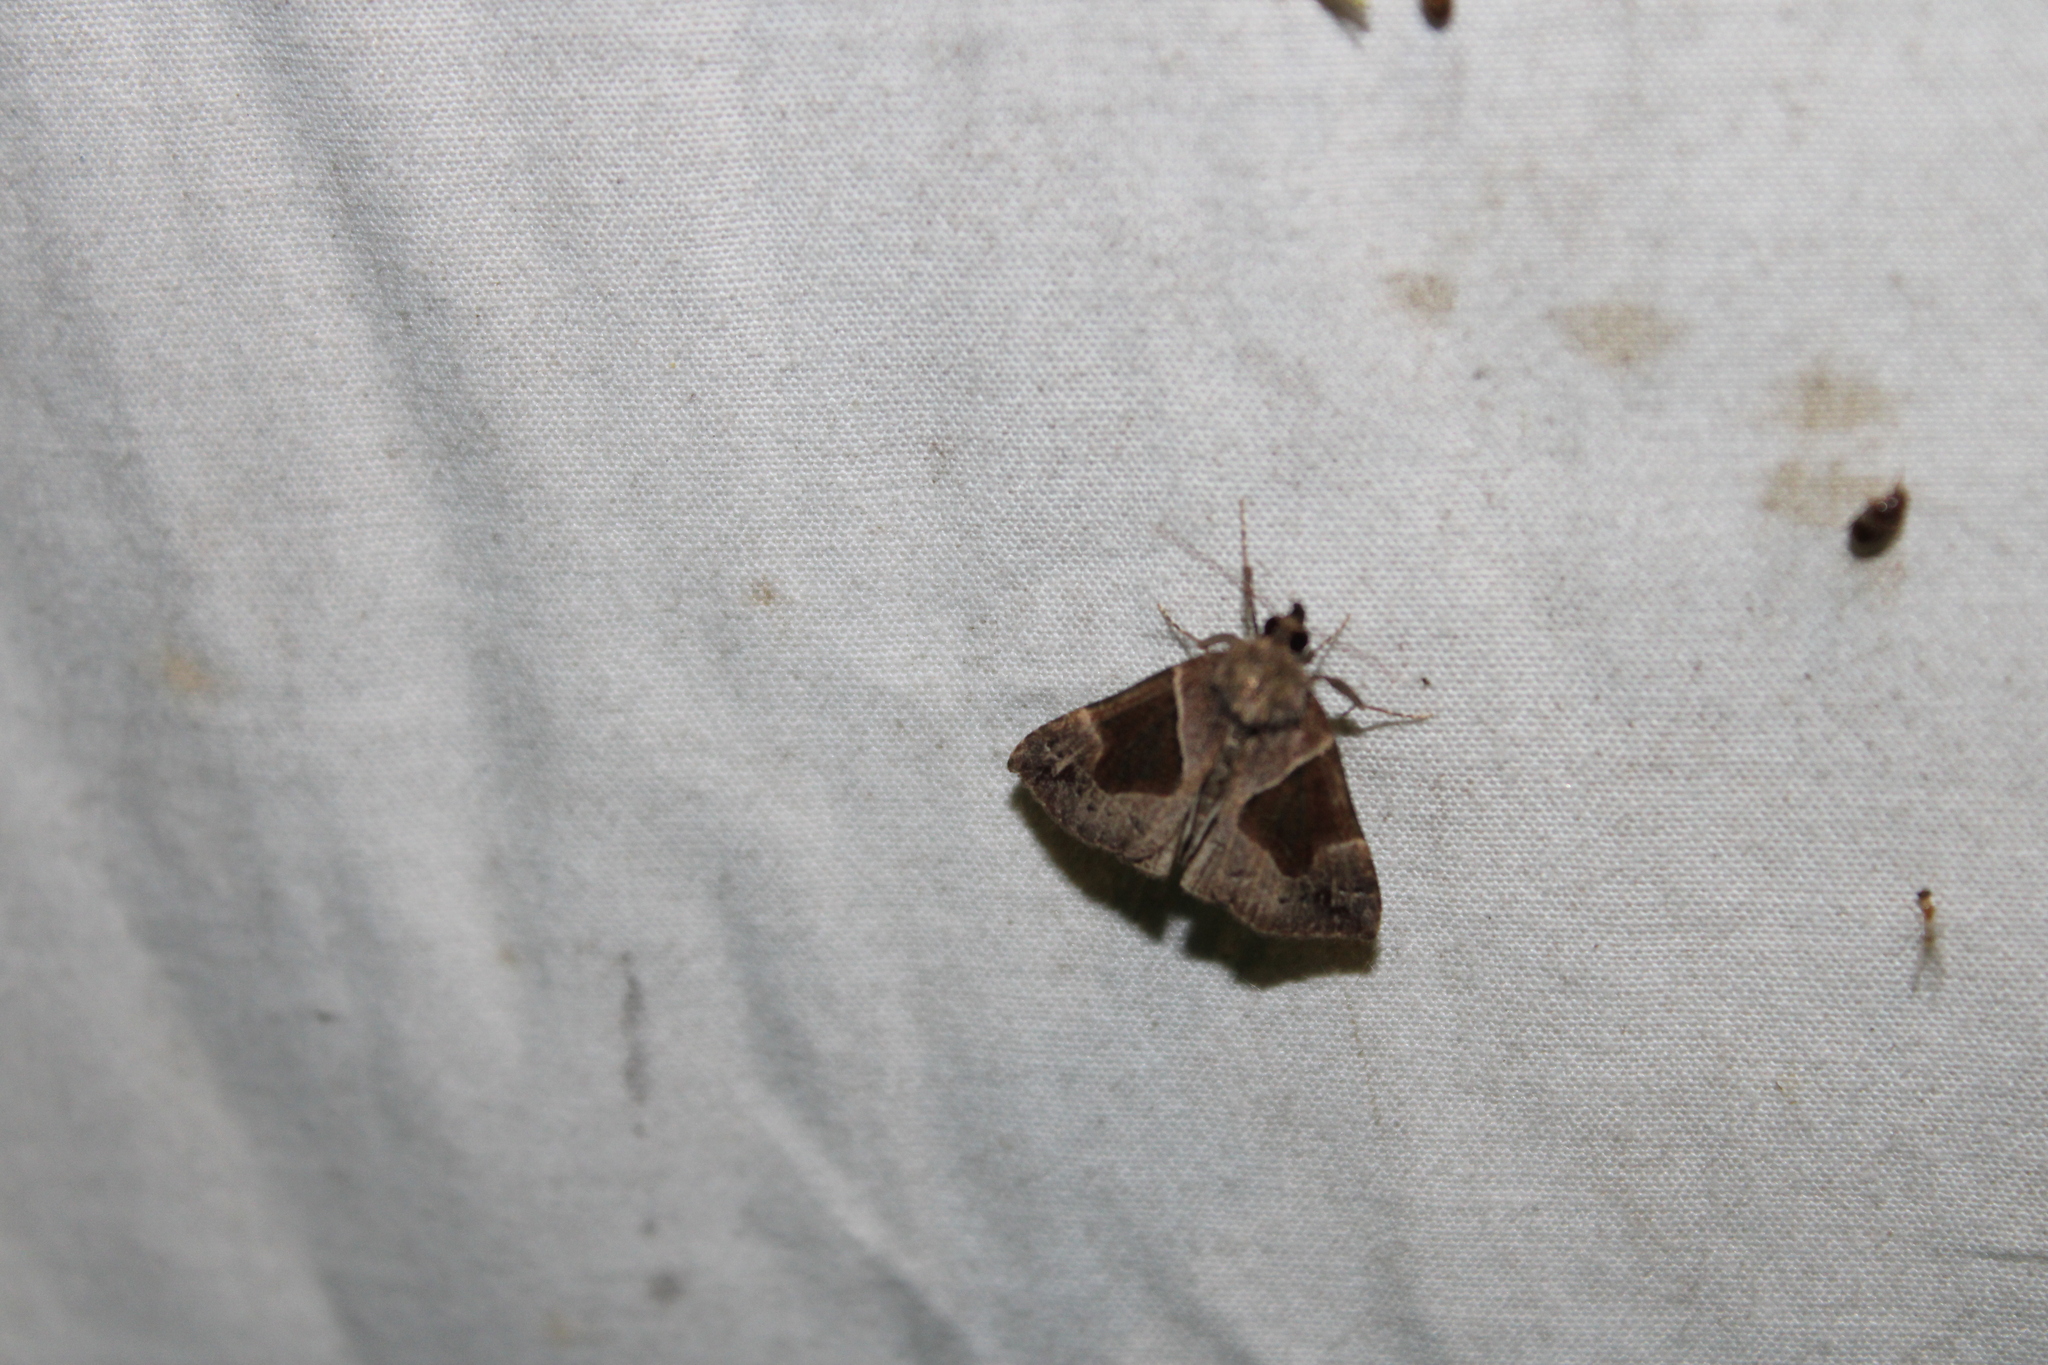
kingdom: Animalia
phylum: Arthropoda
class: Insecta
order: Lepidoptera
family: Erebidae
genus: Hypena
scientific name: Hypena manalis
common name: Flowing-line bomolocha moth
